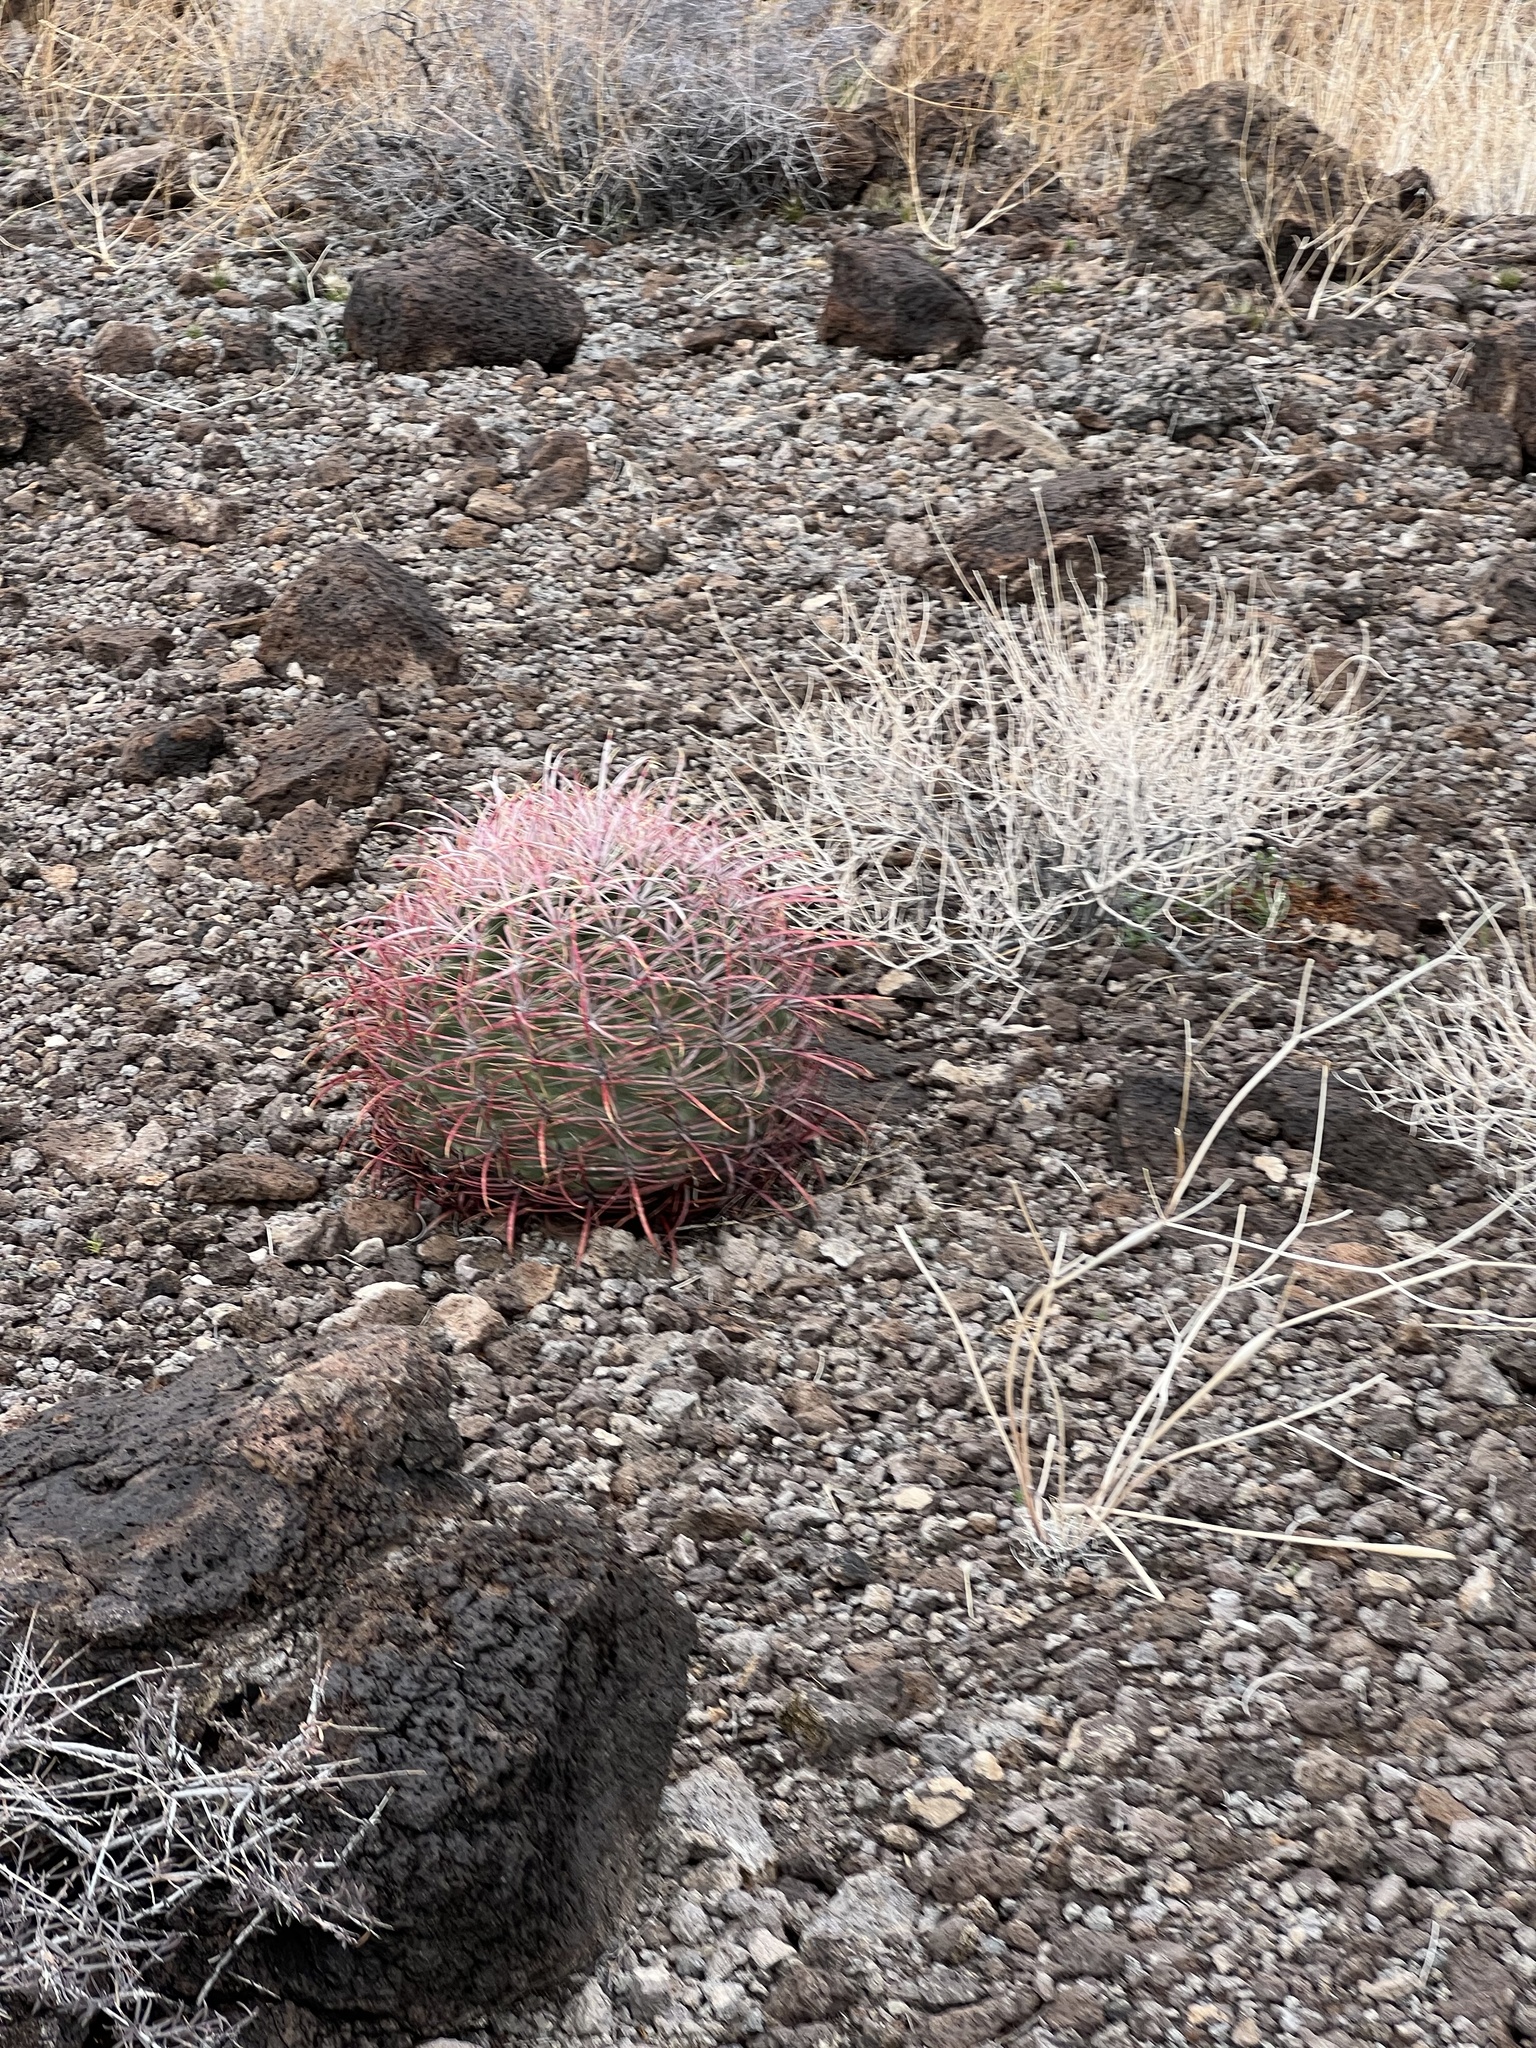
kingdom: Plantae
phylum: Tracheophyta
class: Magnoliopsida
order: Caryophyllales
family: Cactaceae
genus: Ferocactus
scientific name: Ferocactus cylindraceus
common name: California barrel cactus
